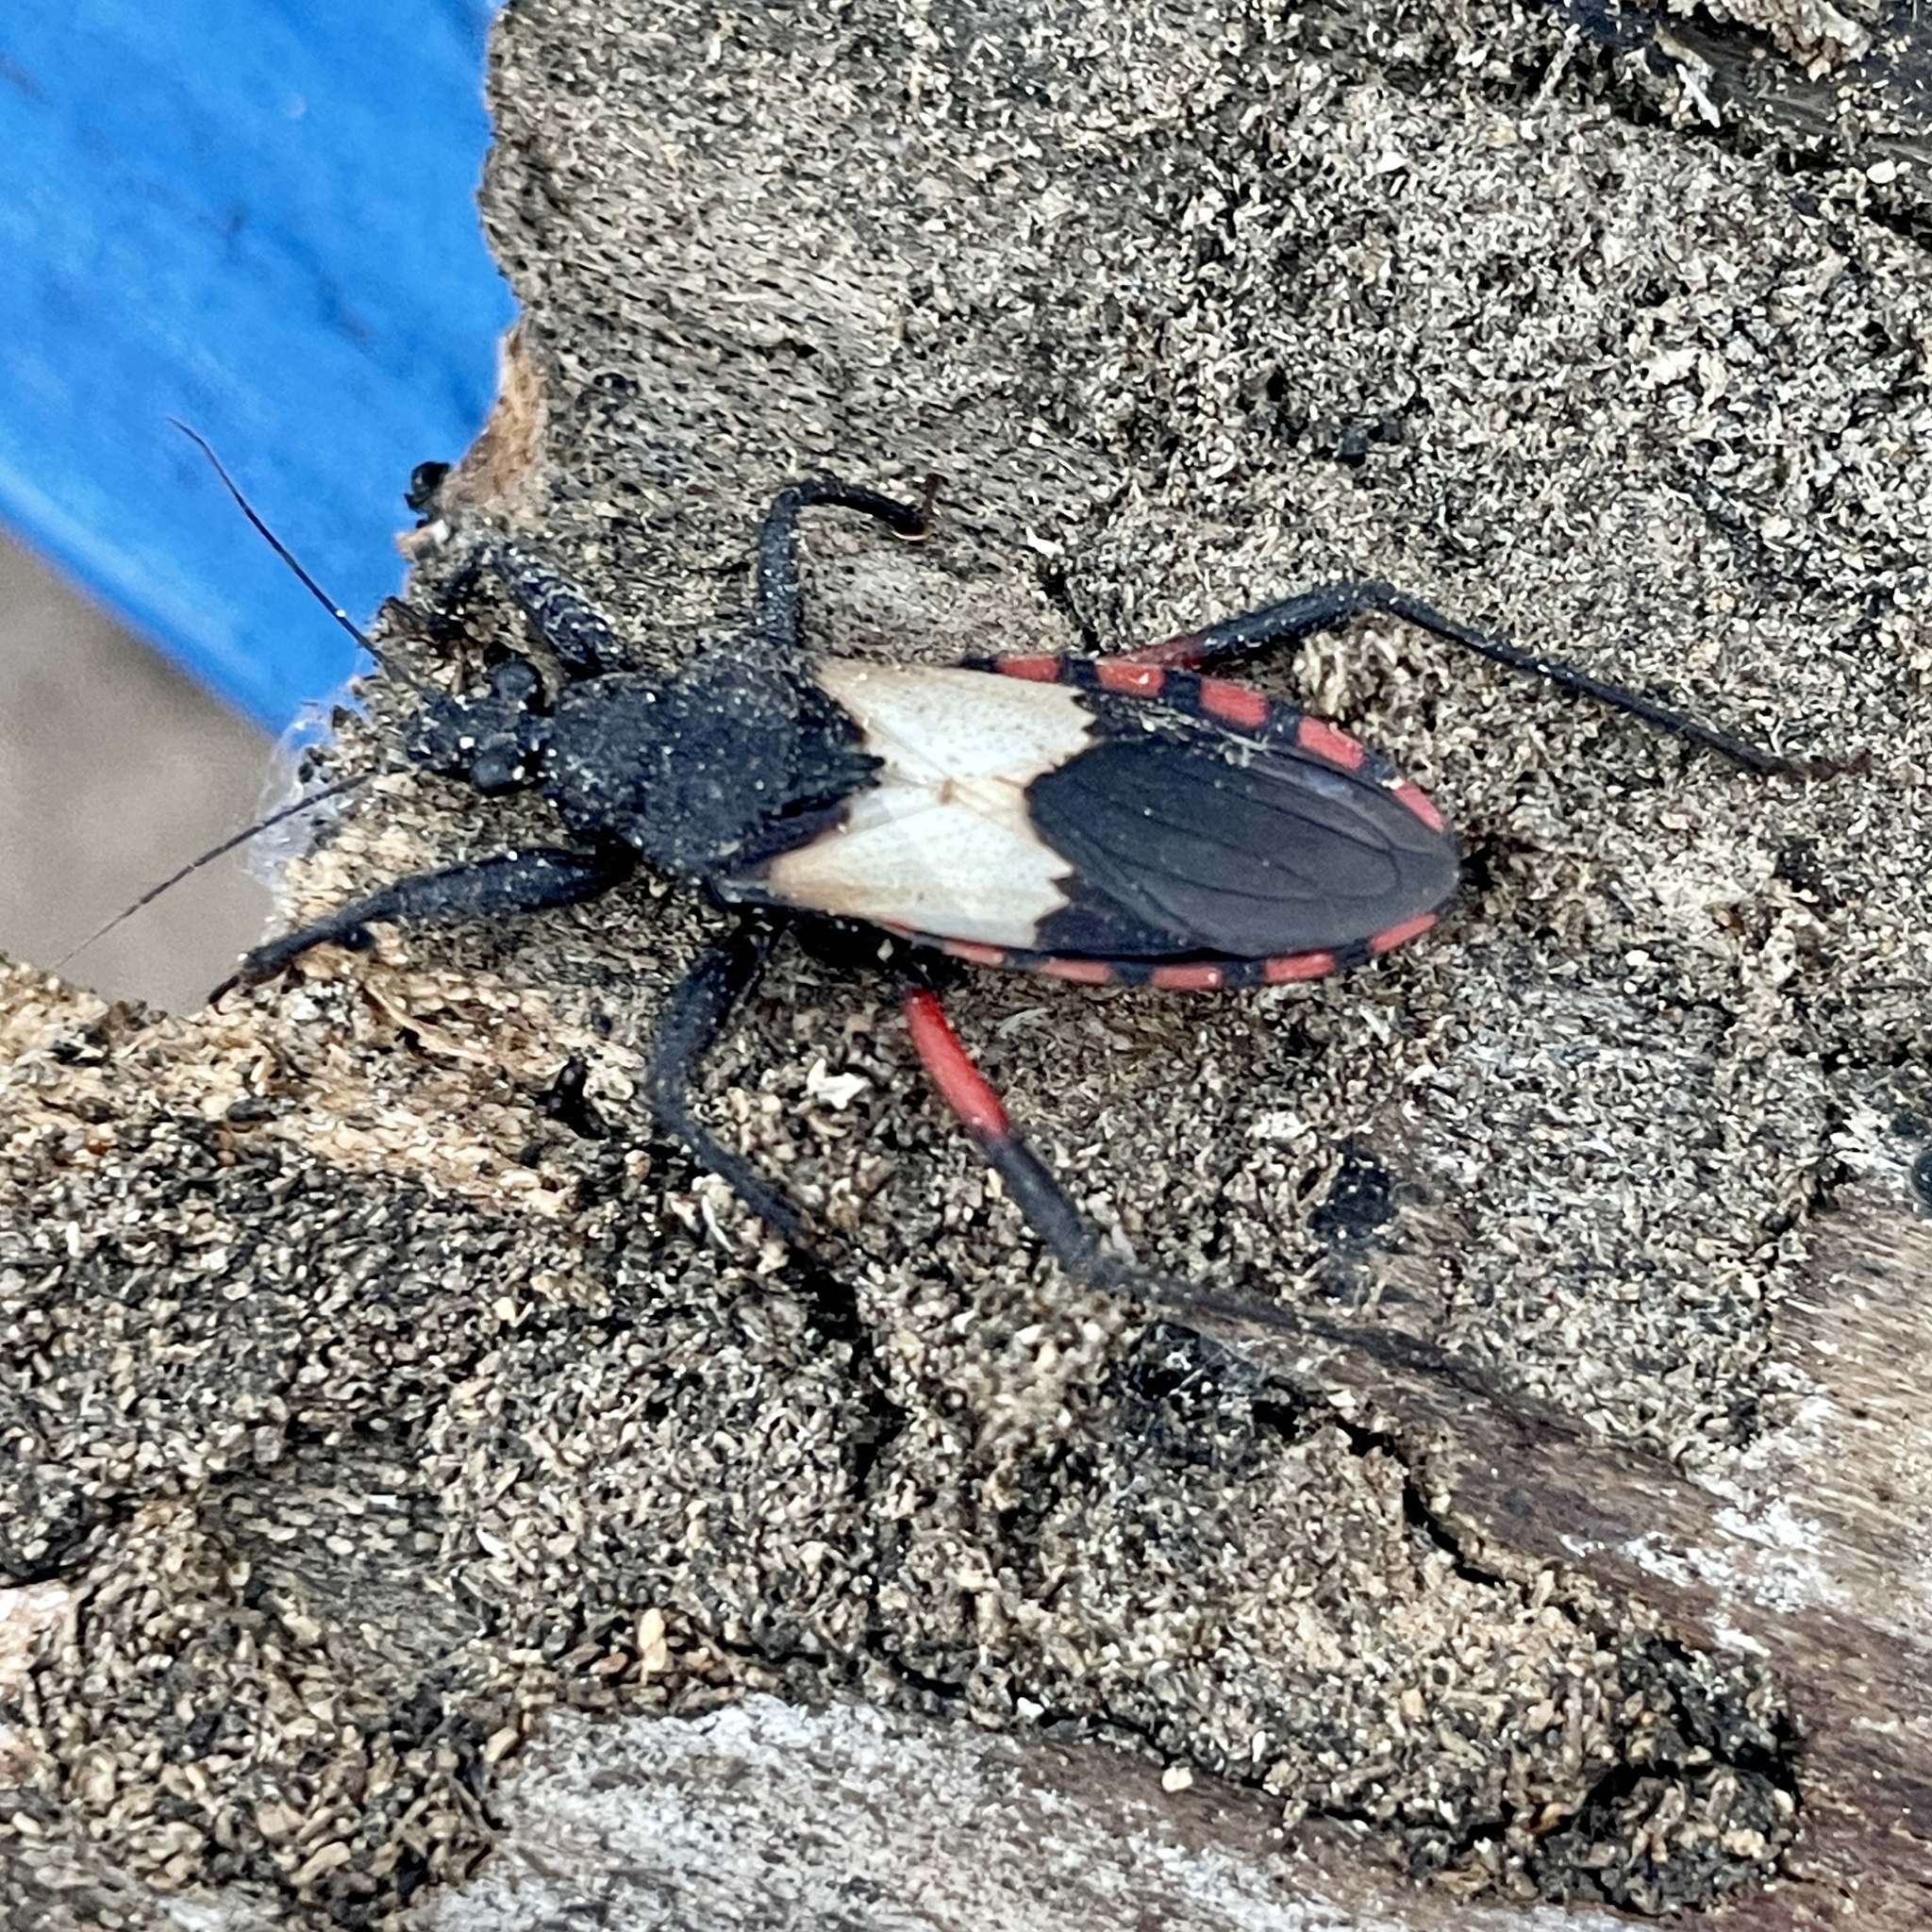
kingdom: Animalia
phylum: Arthropoda
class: Insecta
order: Hemiptera
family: Reduviidae
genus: Microtomus
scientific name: Microtomus purcis
